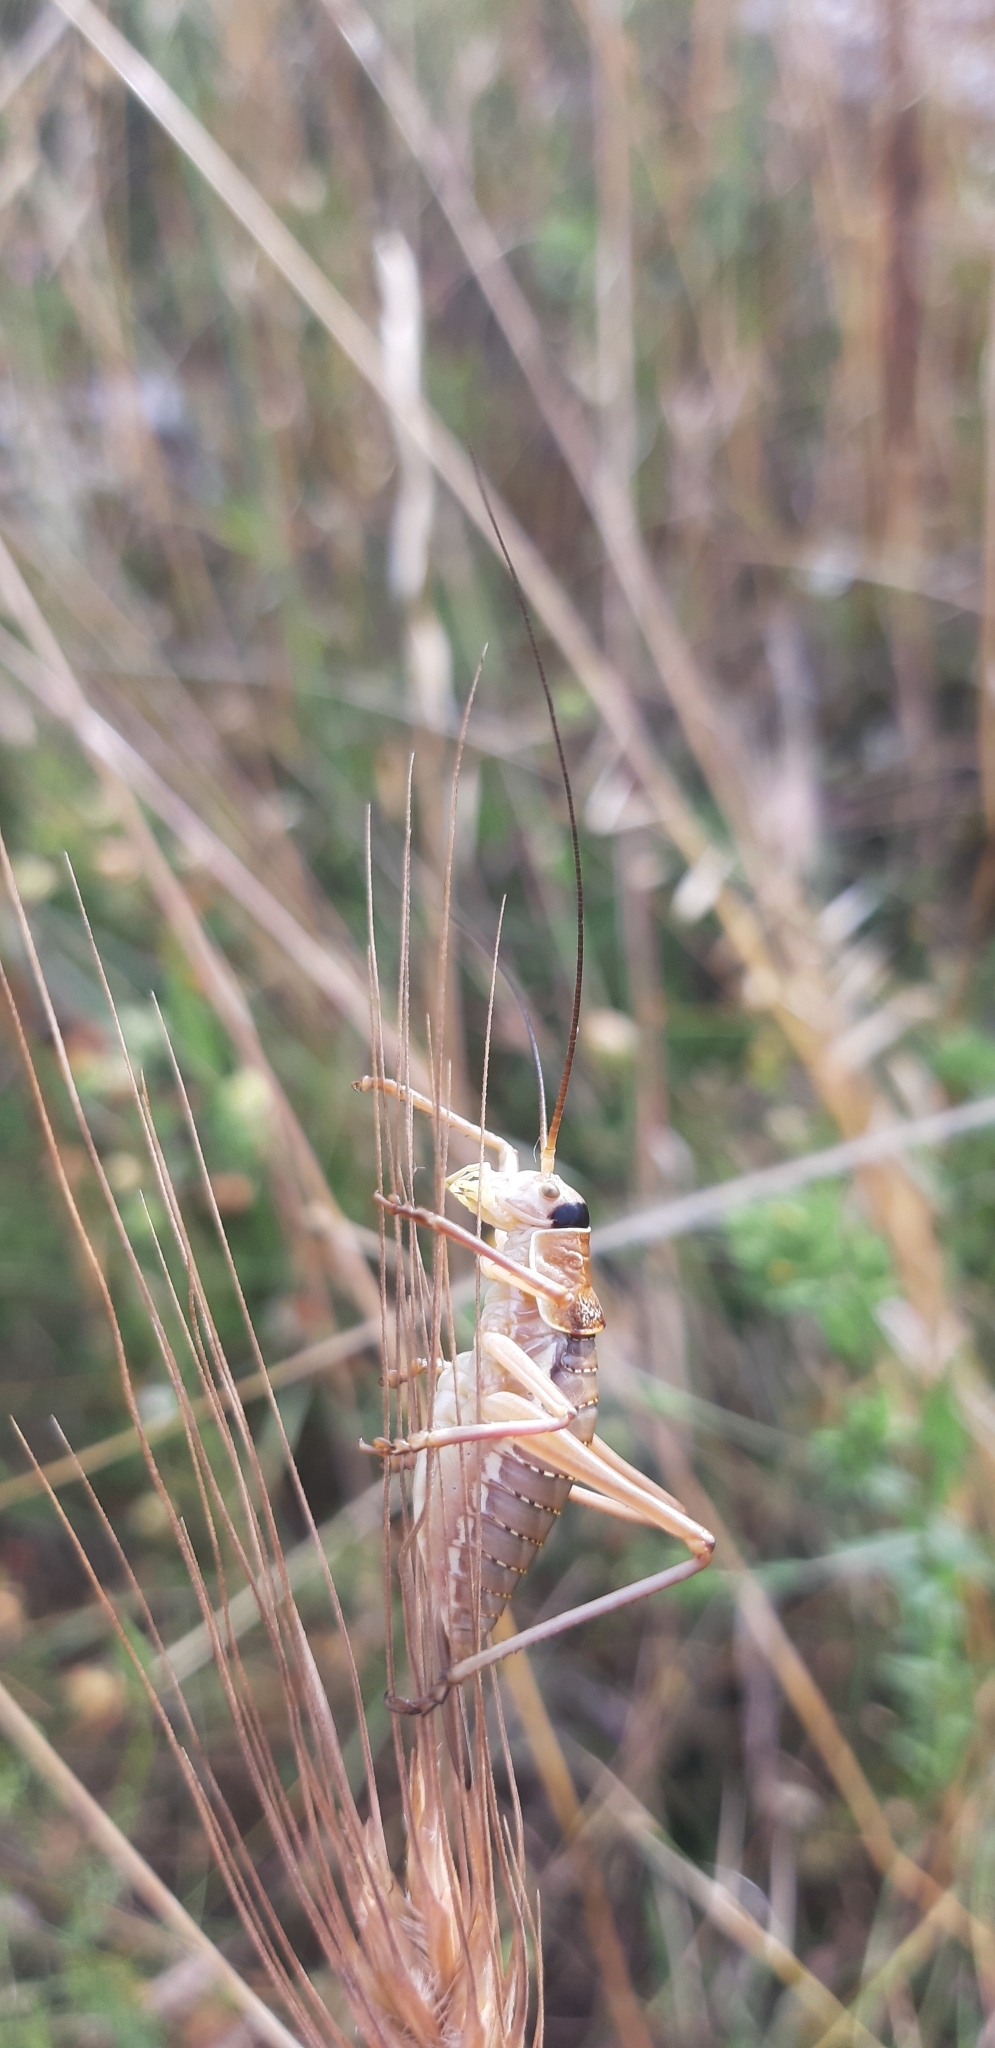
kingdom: Animalia
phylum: Arthropoda
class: Insecta
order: Orthoptera
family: Tettigoniidae
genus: Ephippiger
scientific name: Ephippiger apulus
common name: Apulian saddle bush-cricket
